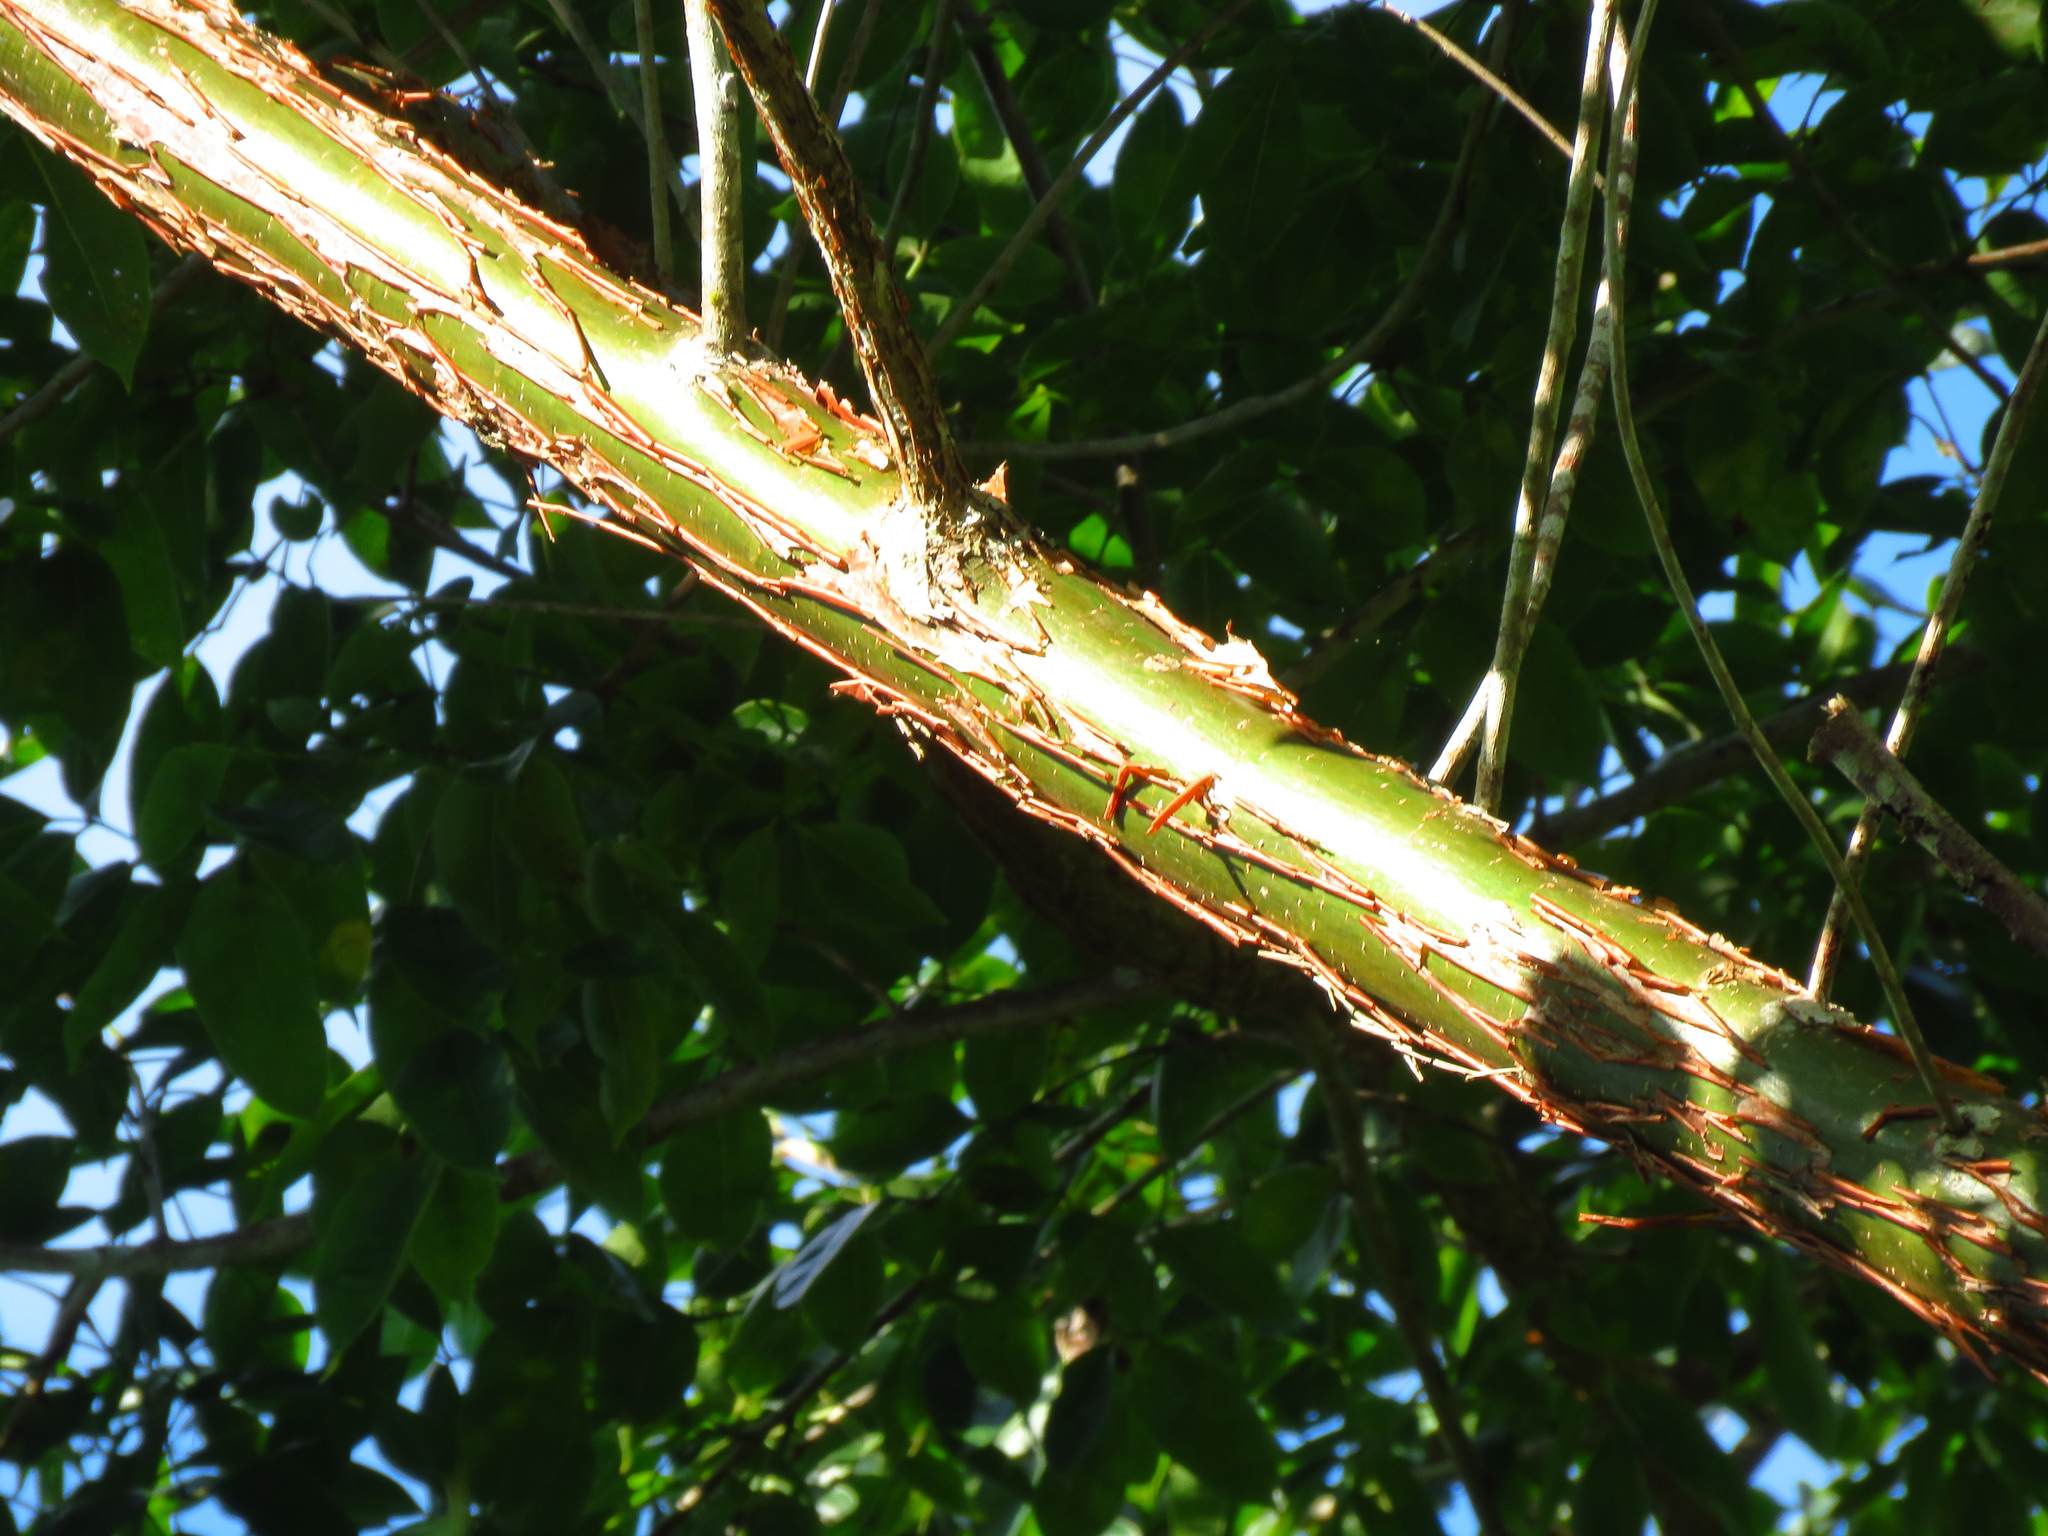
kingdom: Plantae
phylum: Tracheophyta
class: Magnoliopsida
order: Sapindales
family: Burseraceae
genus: Bursera
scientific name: Bursera simaruba
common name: Turpentine tree
